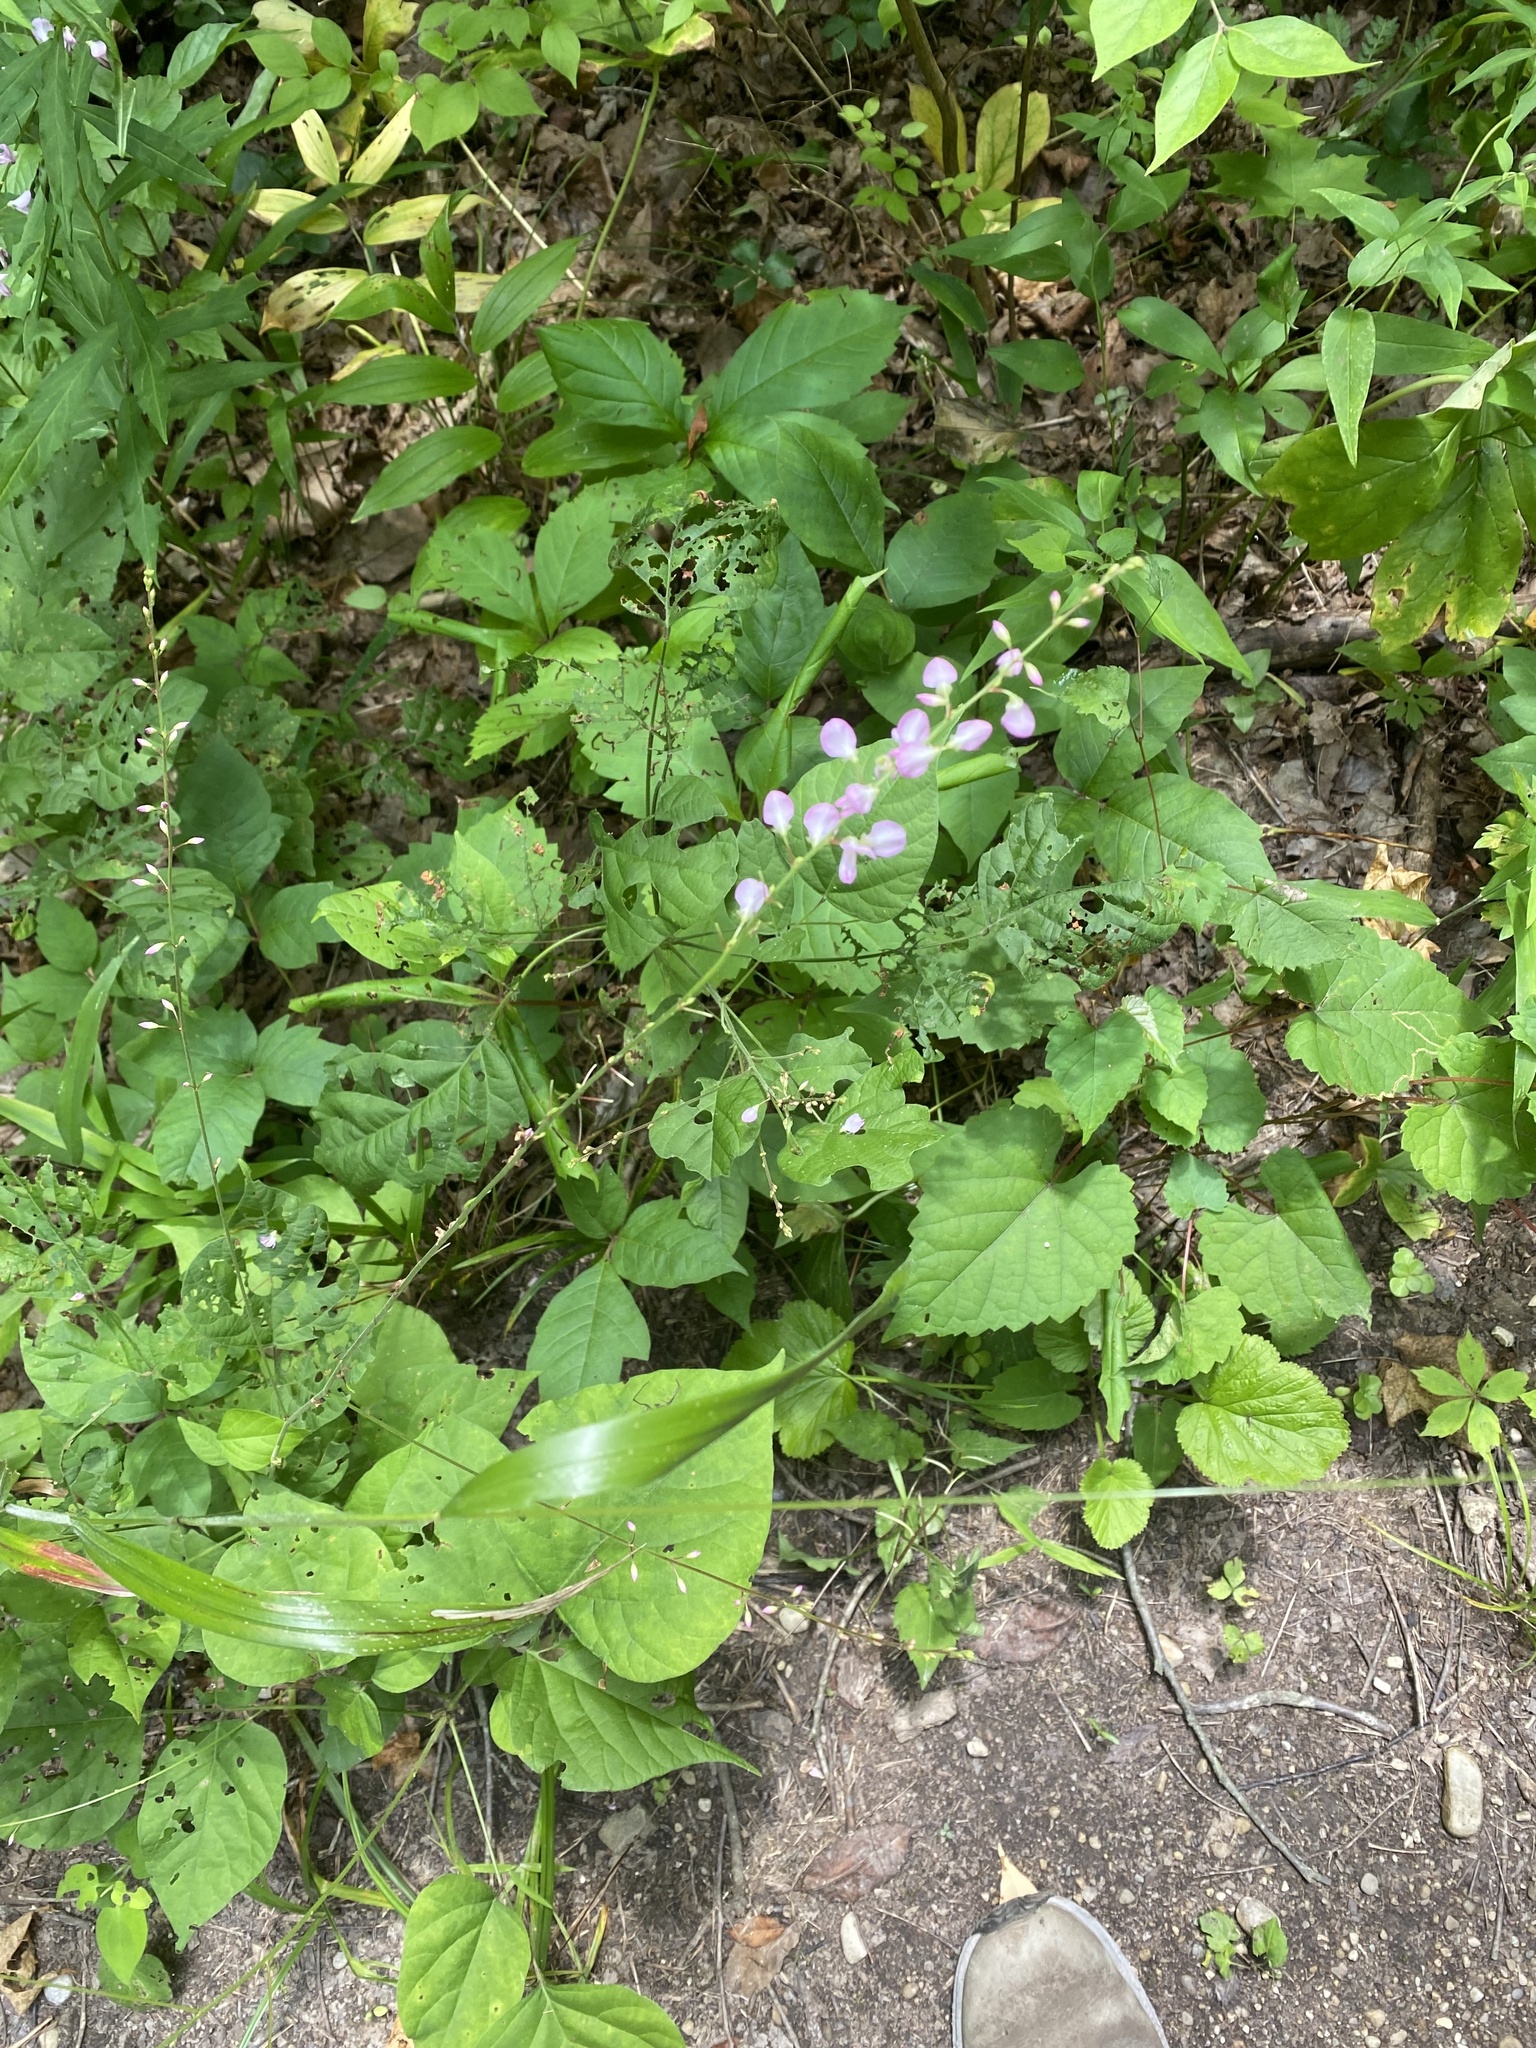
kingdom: Plantae
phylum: Tracheophyta
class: Magnoliopsida
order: Fabales
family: Fabaceae
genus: Hylodesmum
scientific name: Hylodesmum glutinosum
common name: Clustered-leaved tick-trefoil
